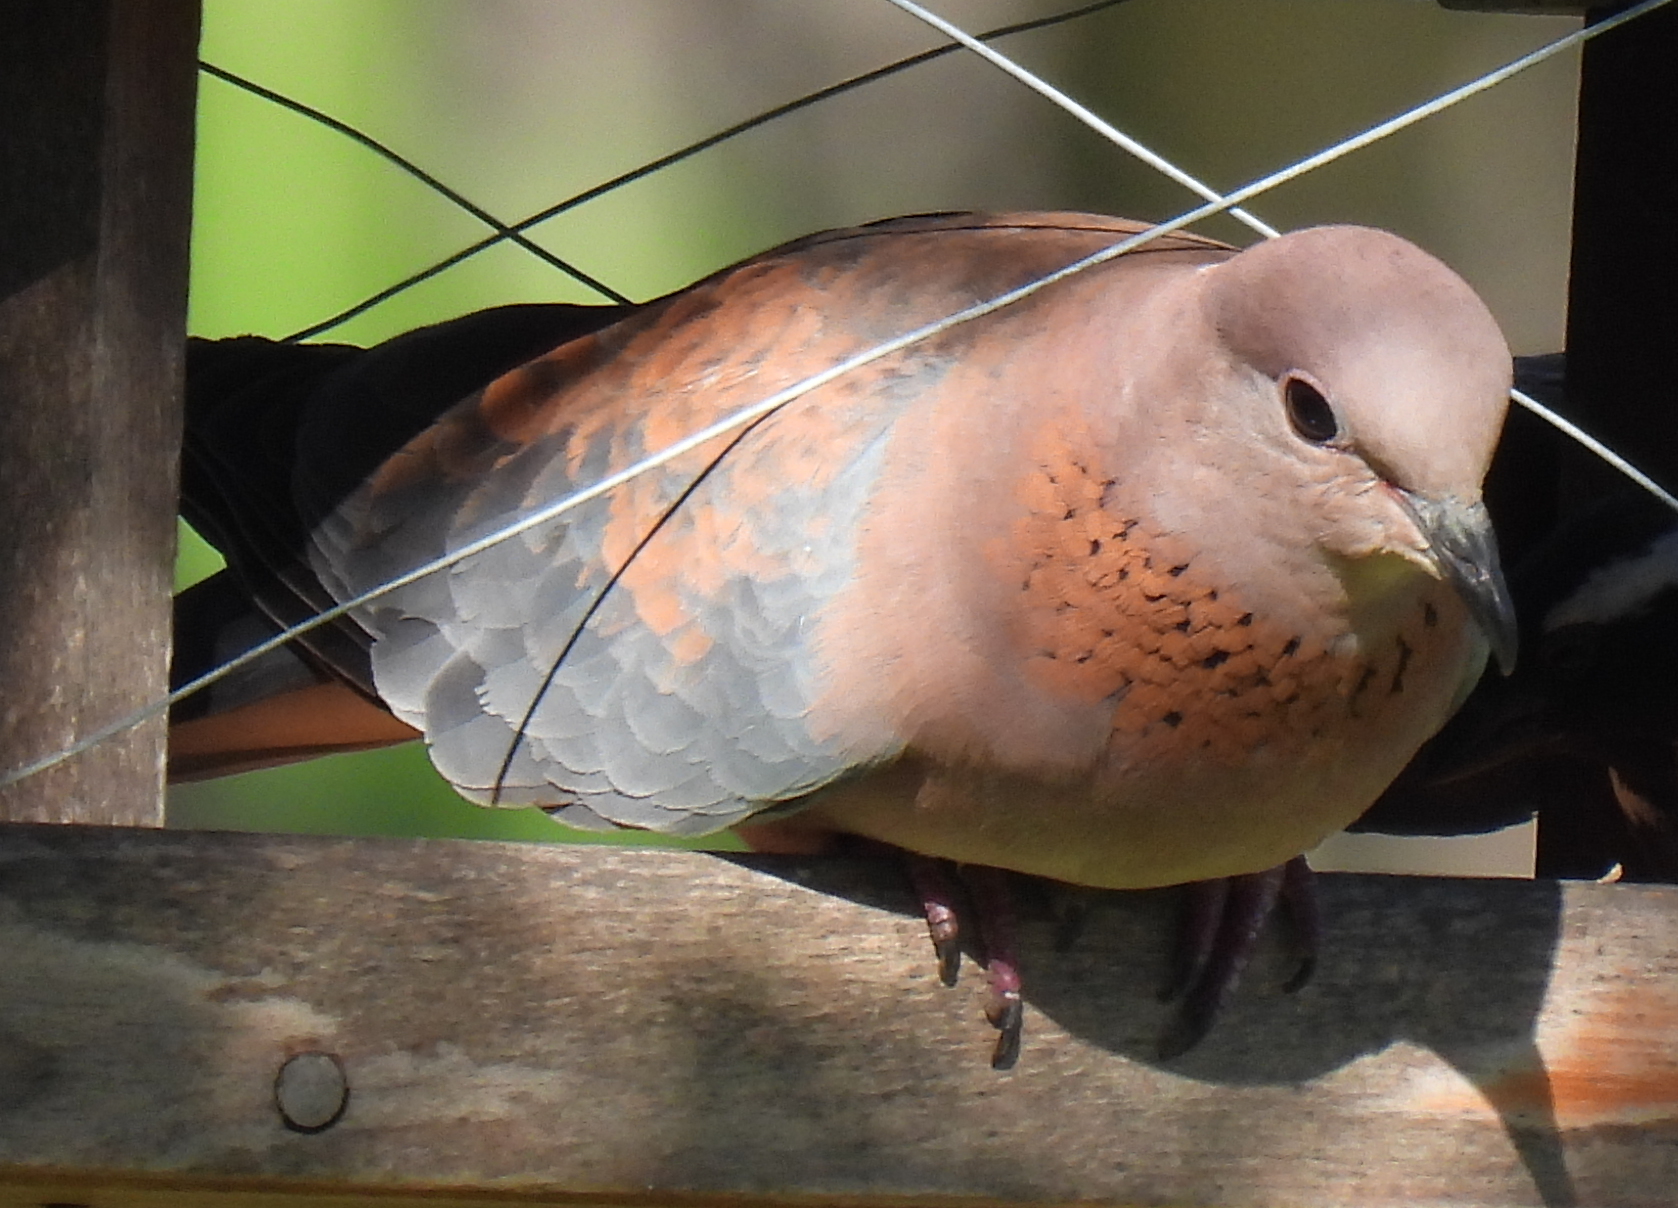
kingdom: Animalia
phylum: Chordata
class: Aves
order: Columbiformes
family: Columbidae
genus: Spilopelia
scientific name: Spilopelia senegalensis
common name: Laughing dove
